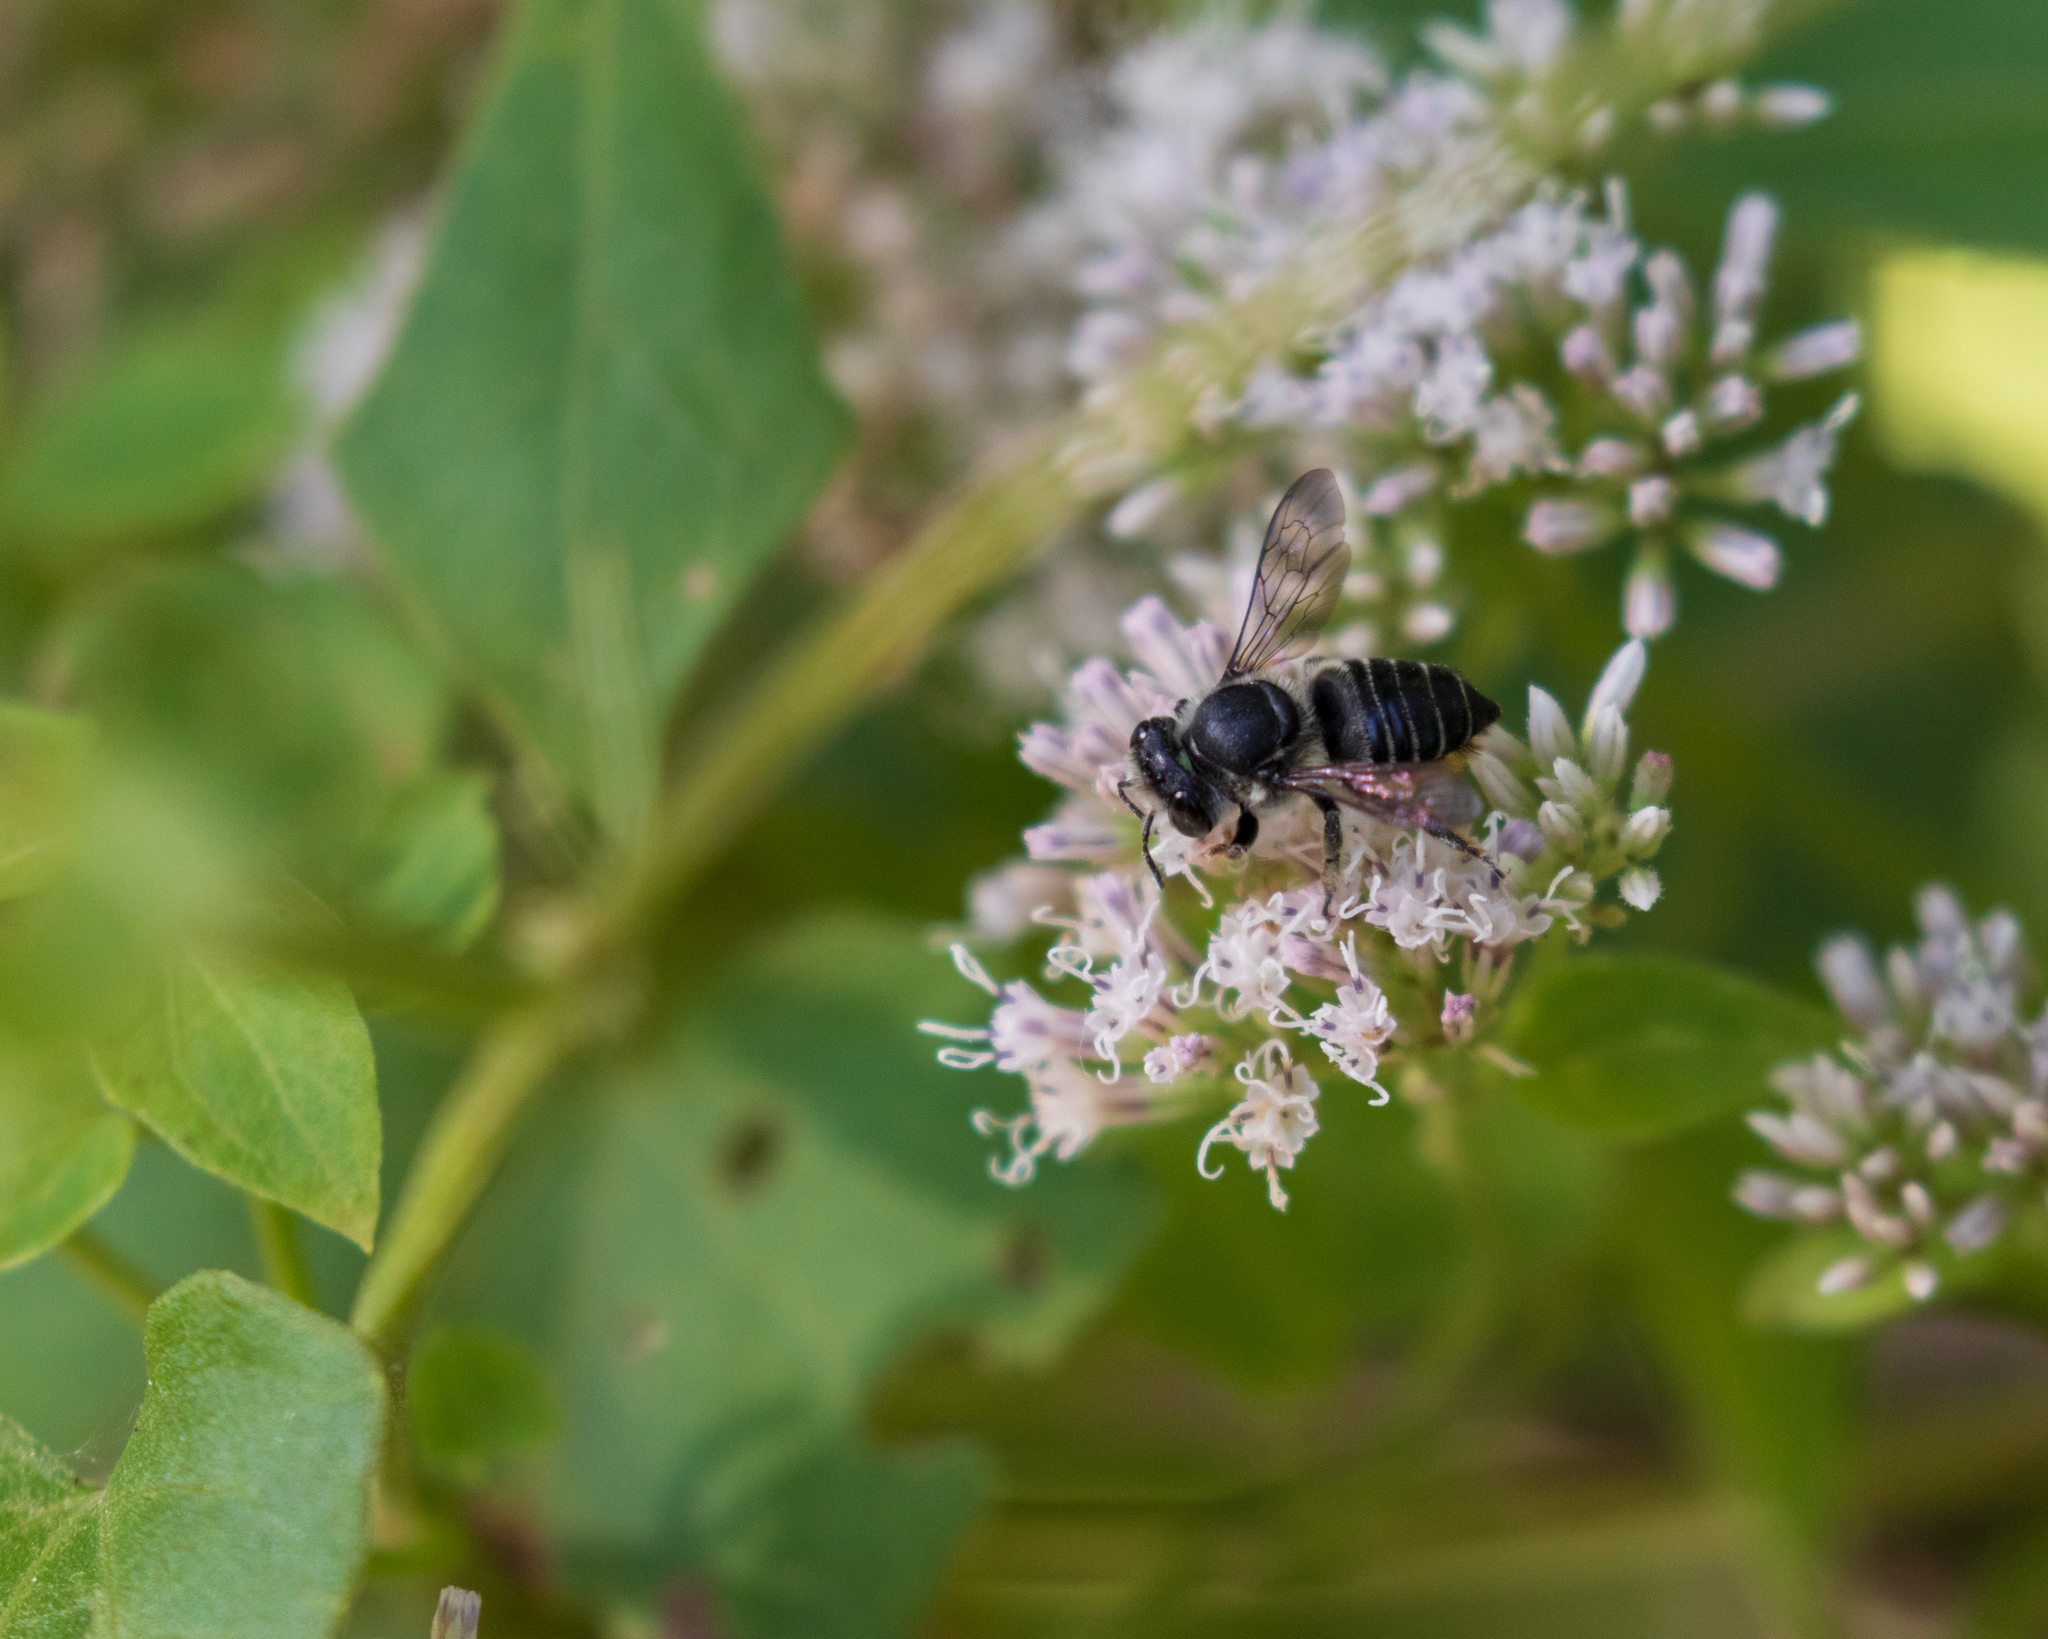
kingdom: Animalia
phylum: Arthropoda
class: Insecta
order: Hymenoptera
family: Megachilidae
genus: Megachile
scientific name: Megachile mendica
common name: Flat-tailed leafcutter
